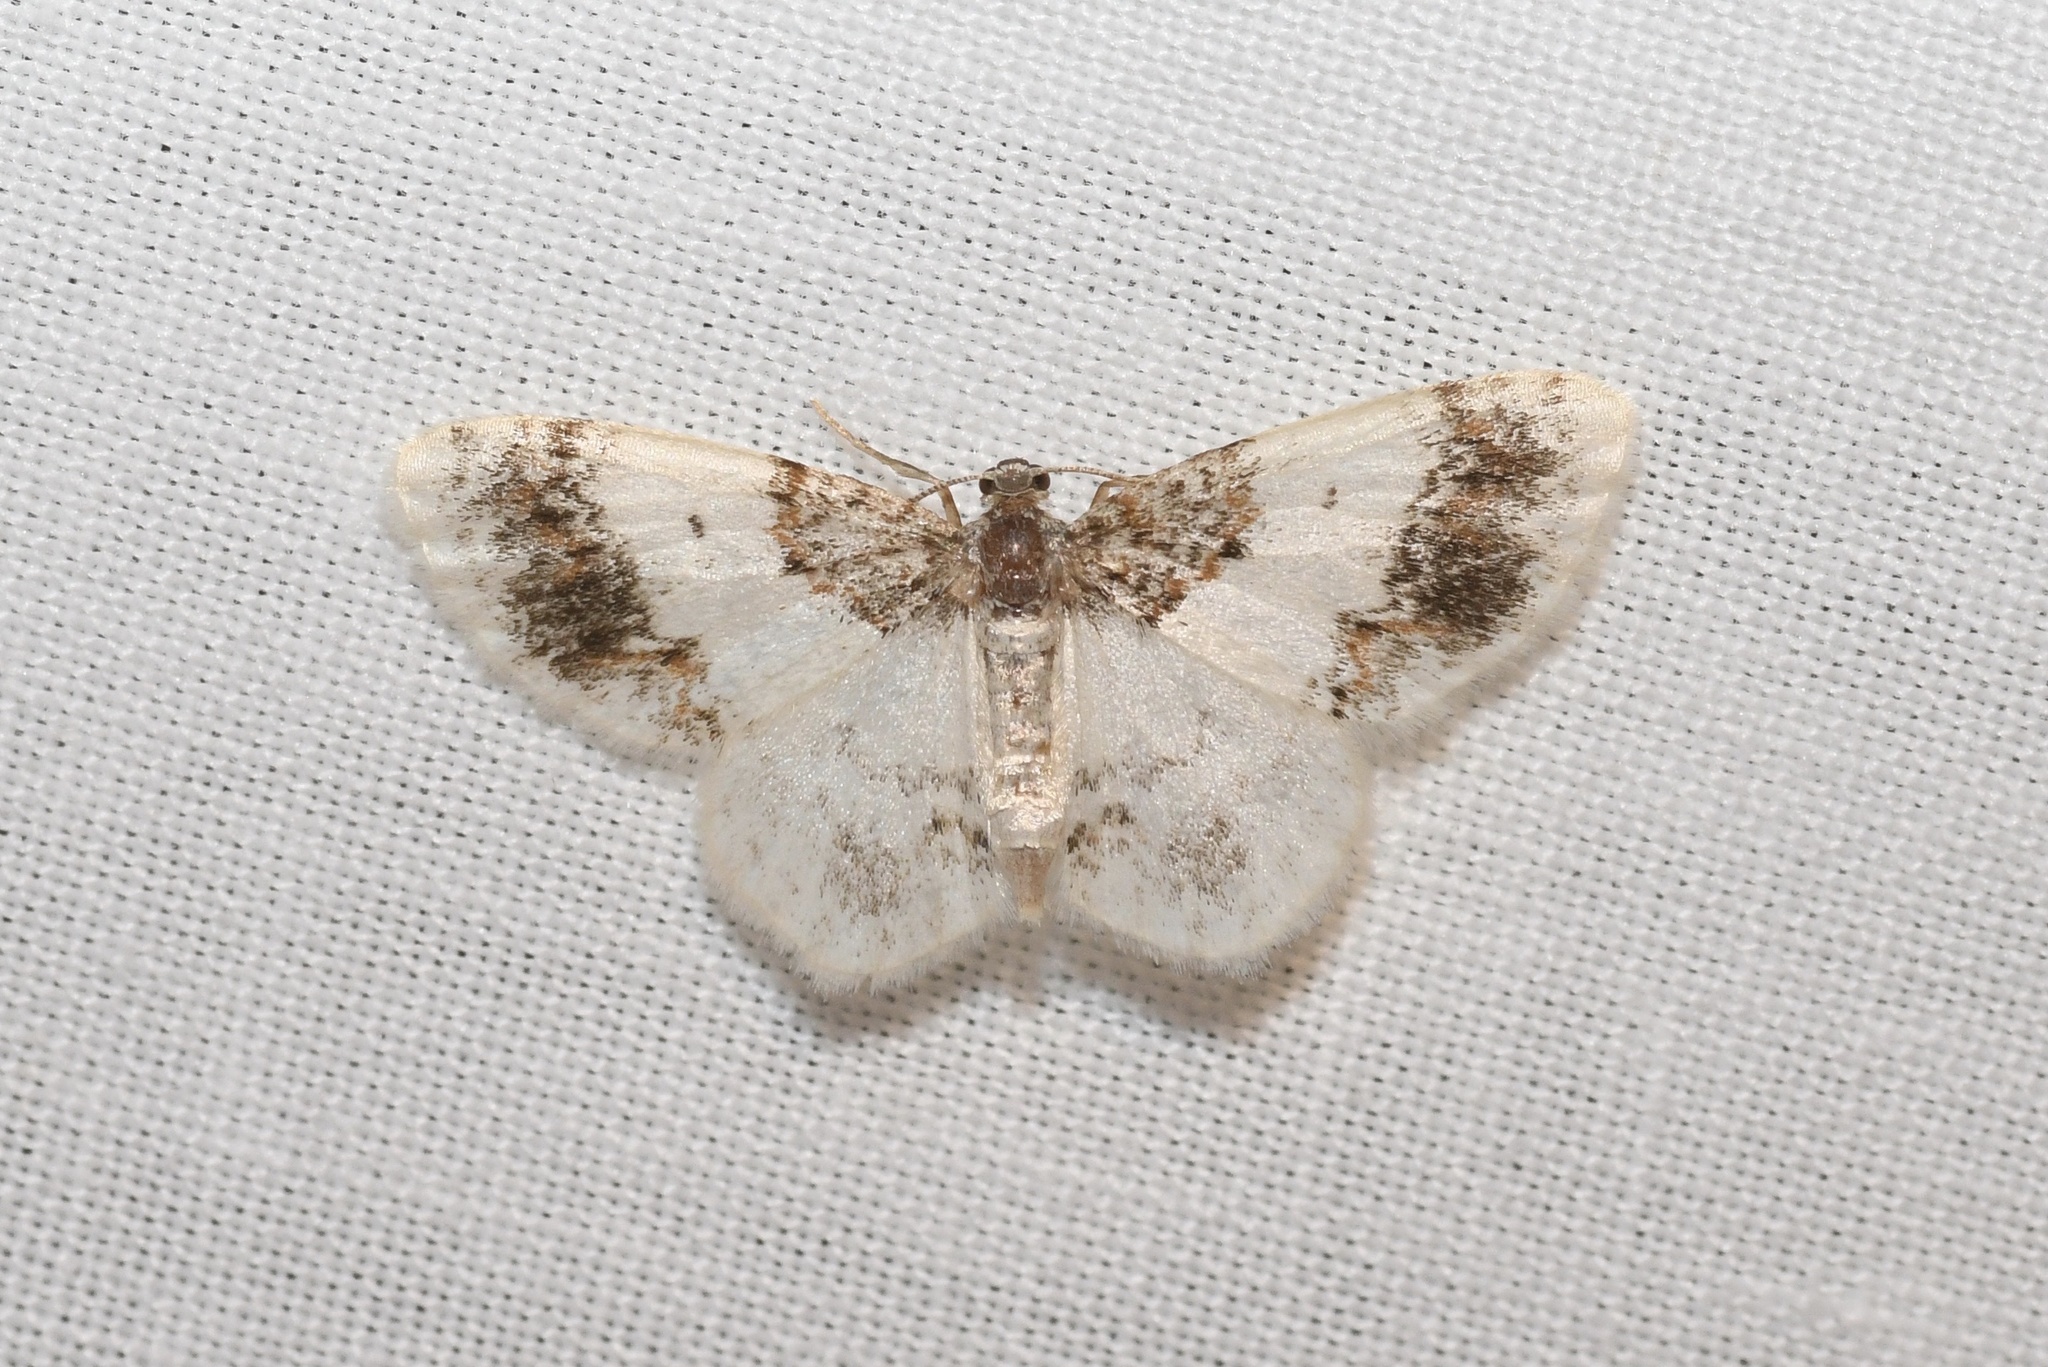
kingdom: Animalia
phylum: Arthropoda
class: Insecta
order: Lepidoptera
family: Geometridae
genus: Hydrelia
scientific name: Hydrelia condensata
